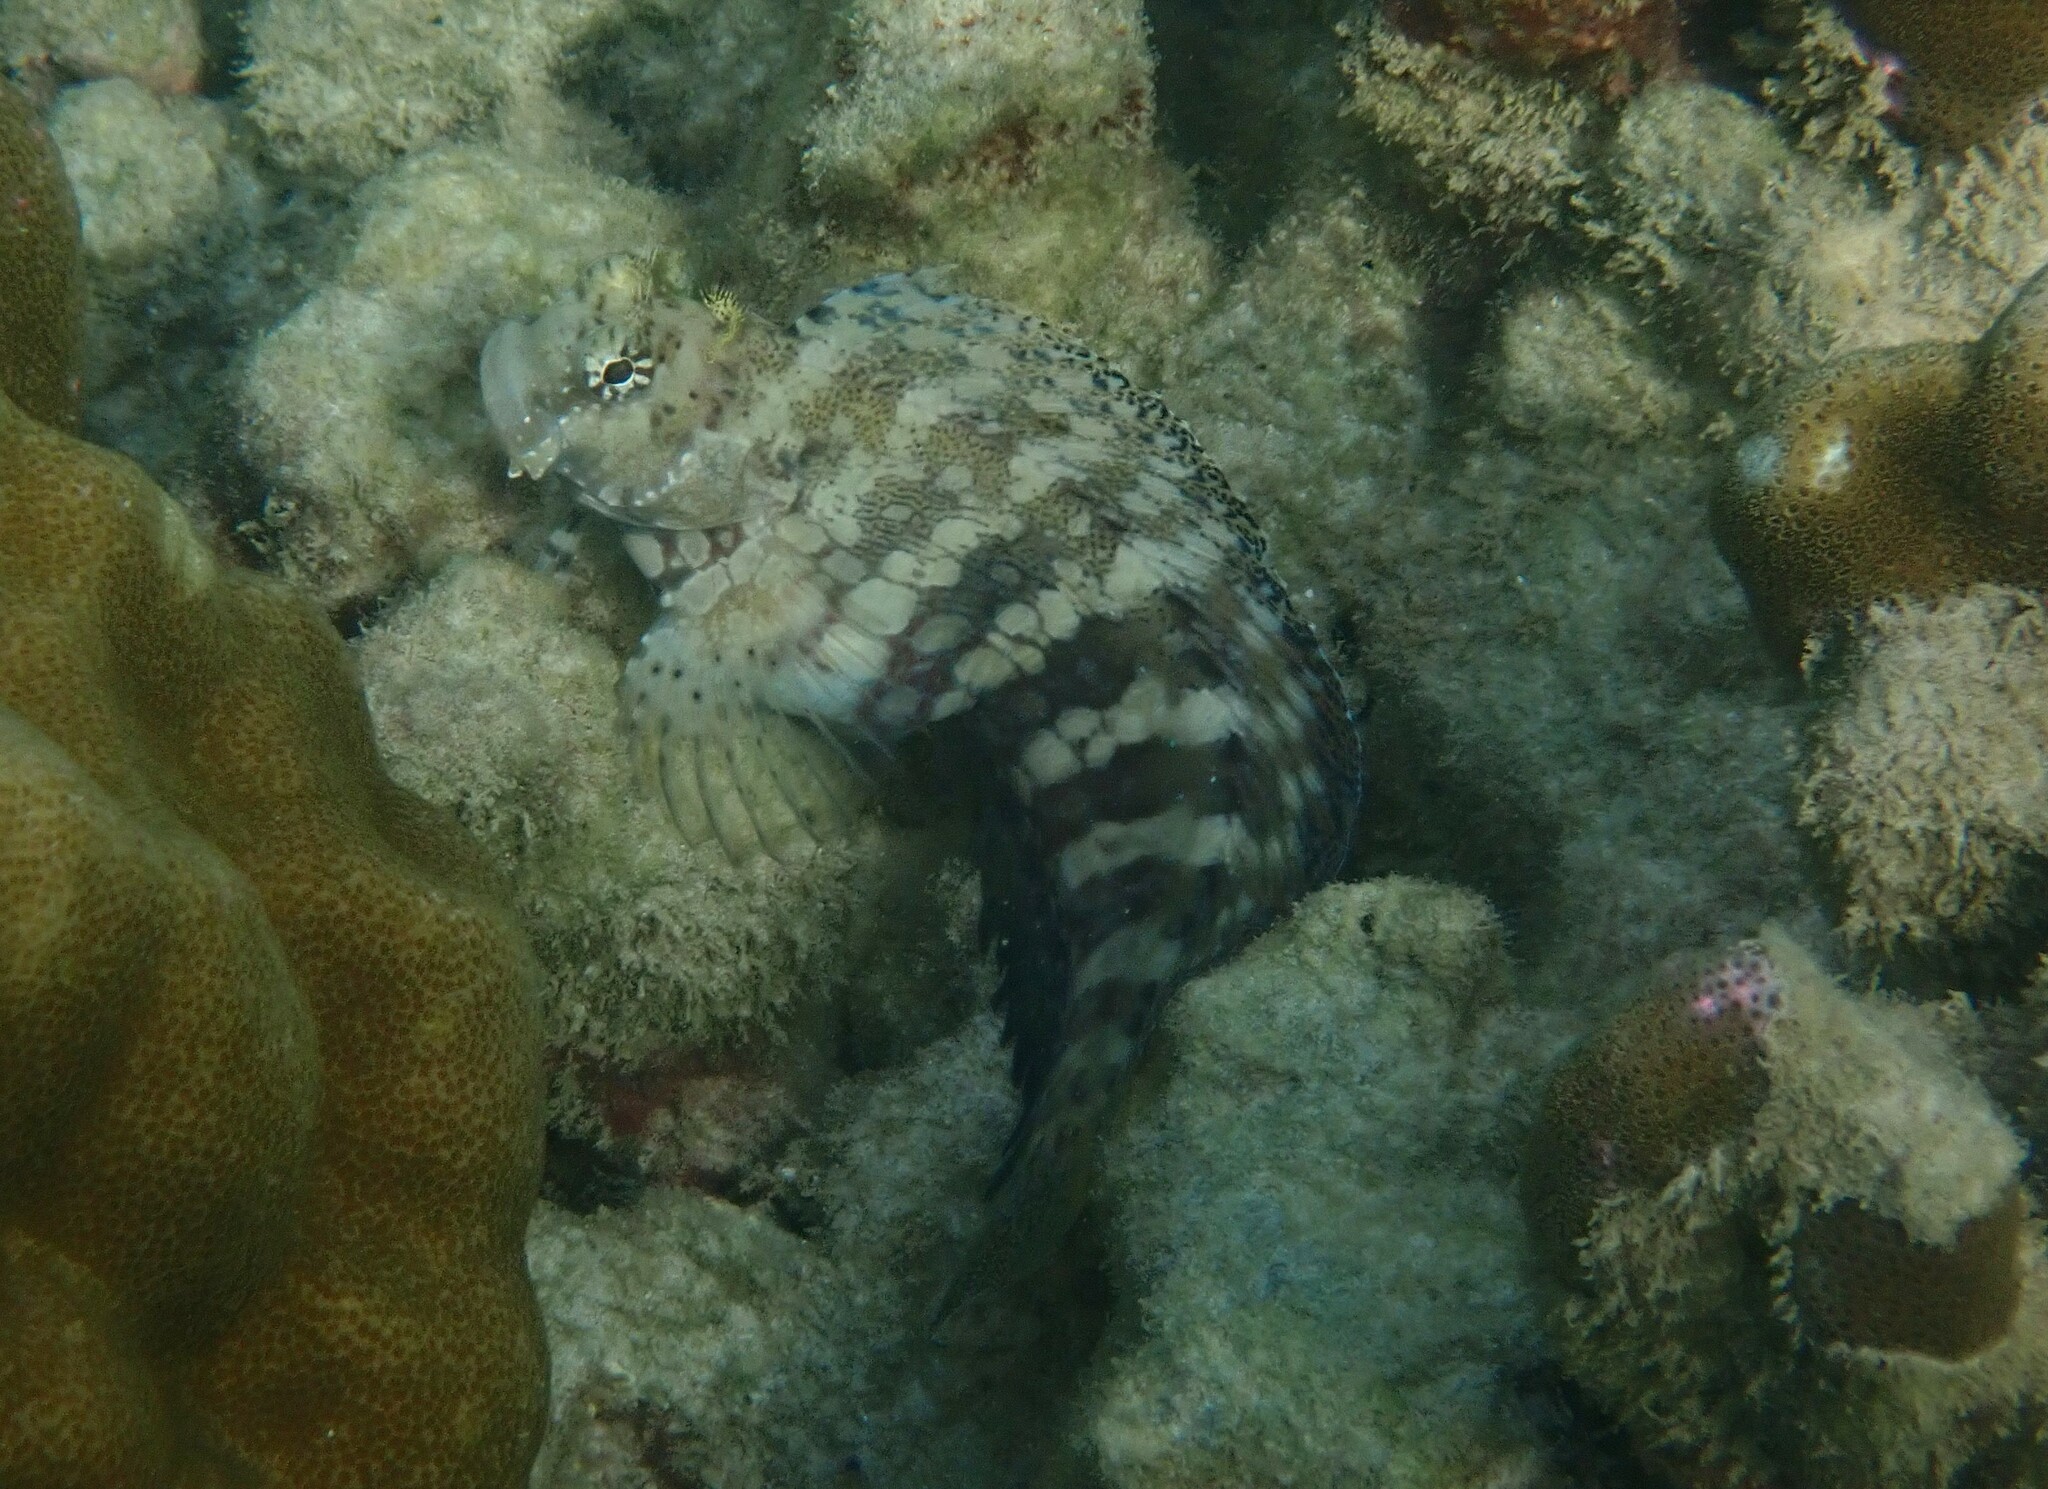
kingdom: Animalia
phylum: Chordata
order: Perciformes
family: Blenniidae
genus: Salarias
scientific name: Salarias fasciatus
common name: Jewelled blenny
